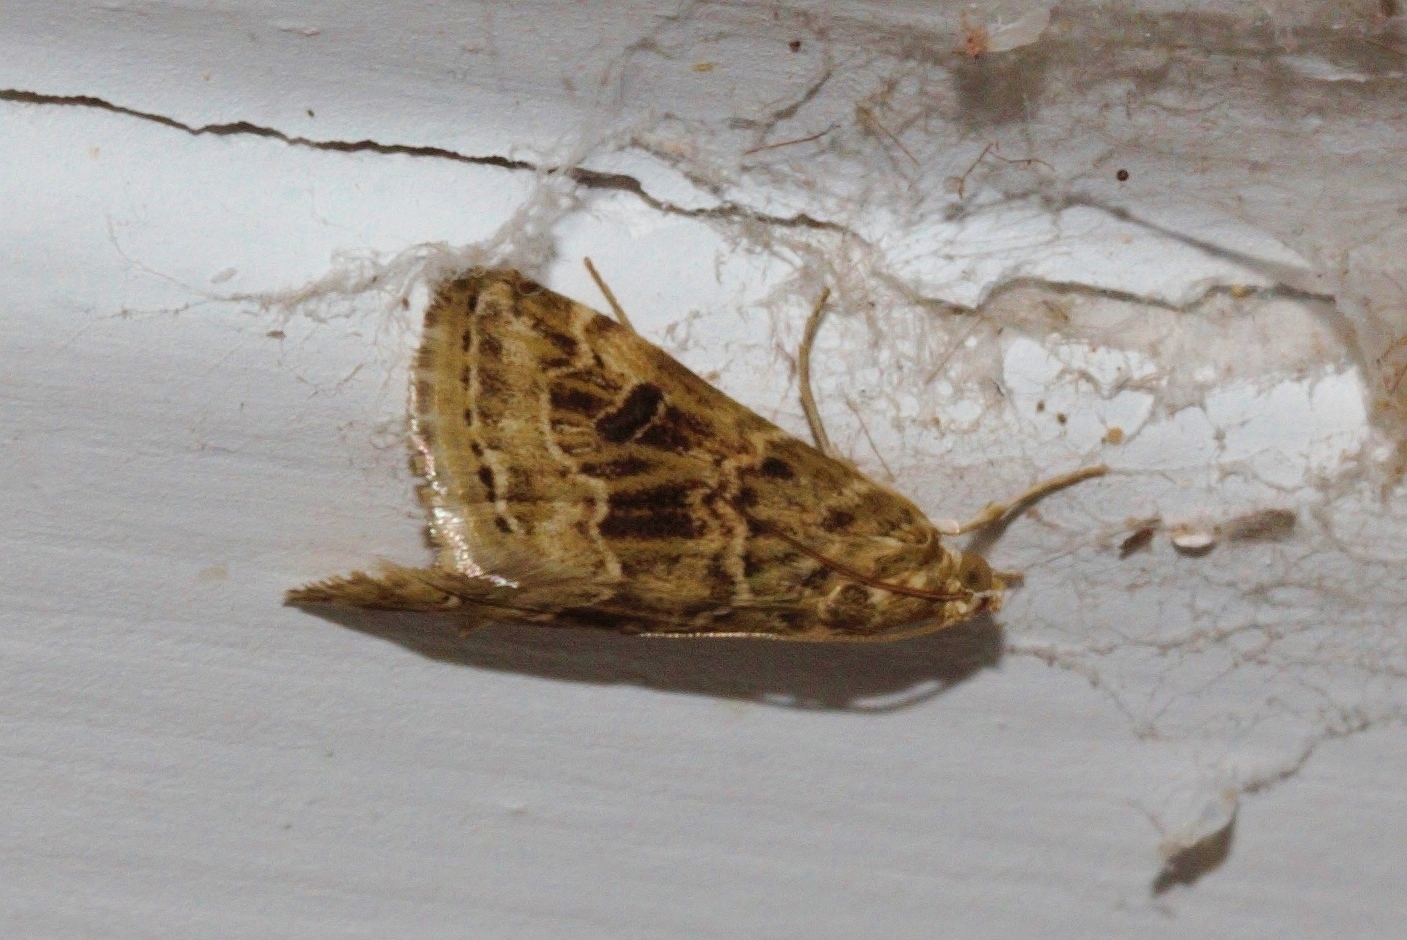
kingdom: Animalia
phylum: Arthropoda
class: Insecta
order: Lepidoptera
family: Crambidae
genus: Hellula
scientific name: Hellula undalis
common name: Cabbage webworm
